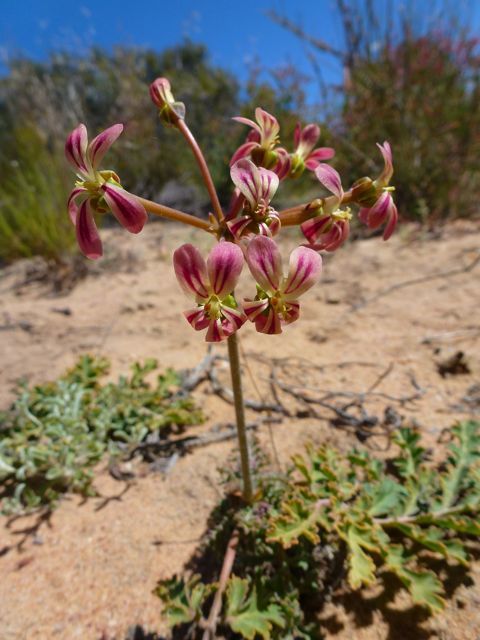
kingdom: Plantae
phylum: Tracheophyta
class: Magnoliopsida
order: Geraniales
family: Geraniaceae
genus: Pelargonium
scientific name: Pelargonium radulifolium
